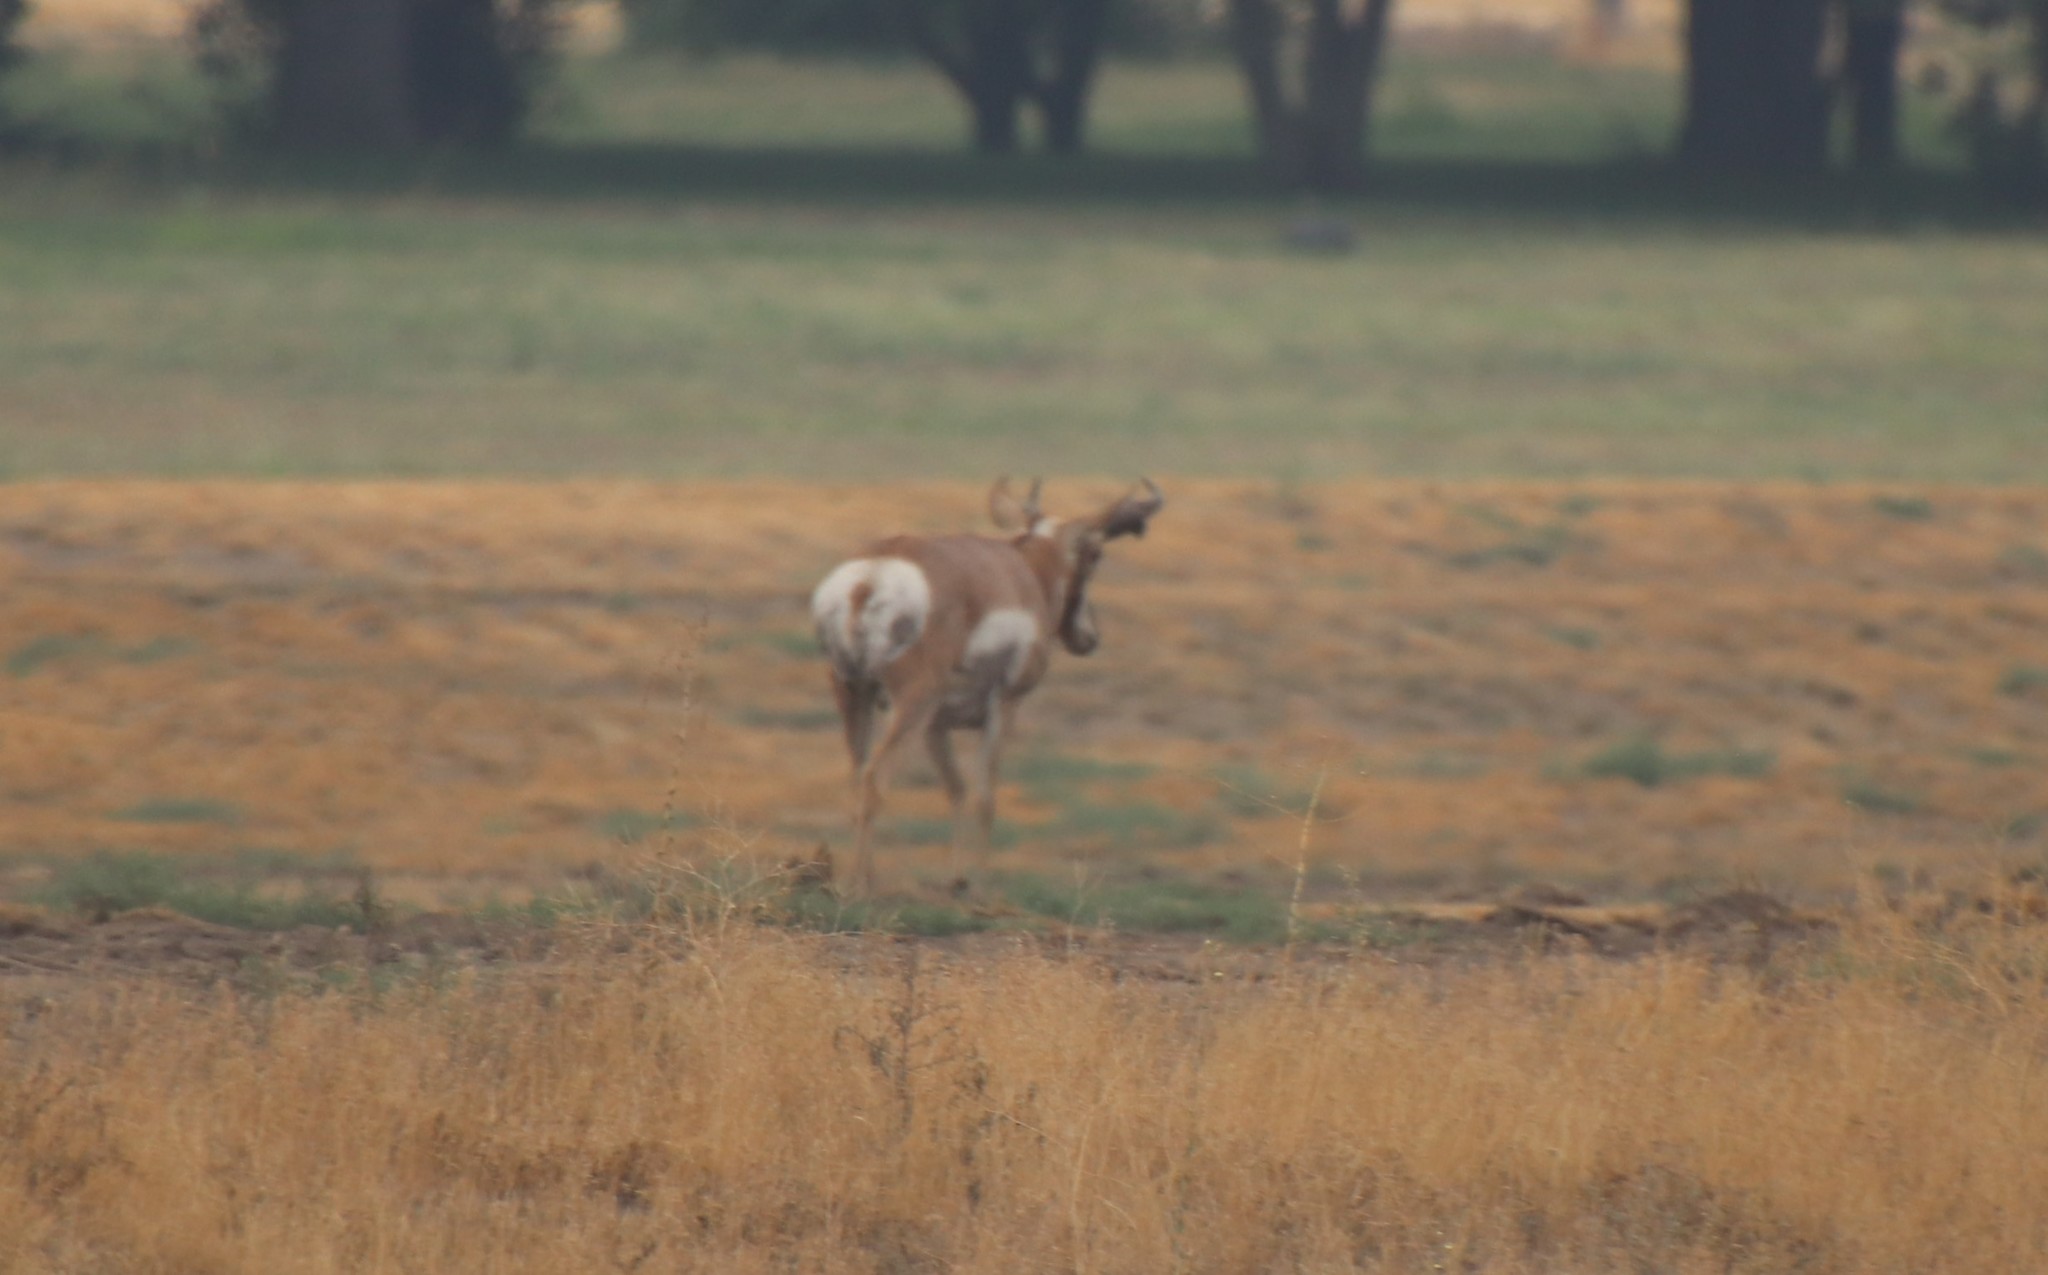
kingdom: Animalia
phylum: Chordata
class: Mammalia
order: Artiodactyla
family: Antilocapridae
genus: Antilocapra
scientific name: Antilocapra americana
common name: Pronghorn
